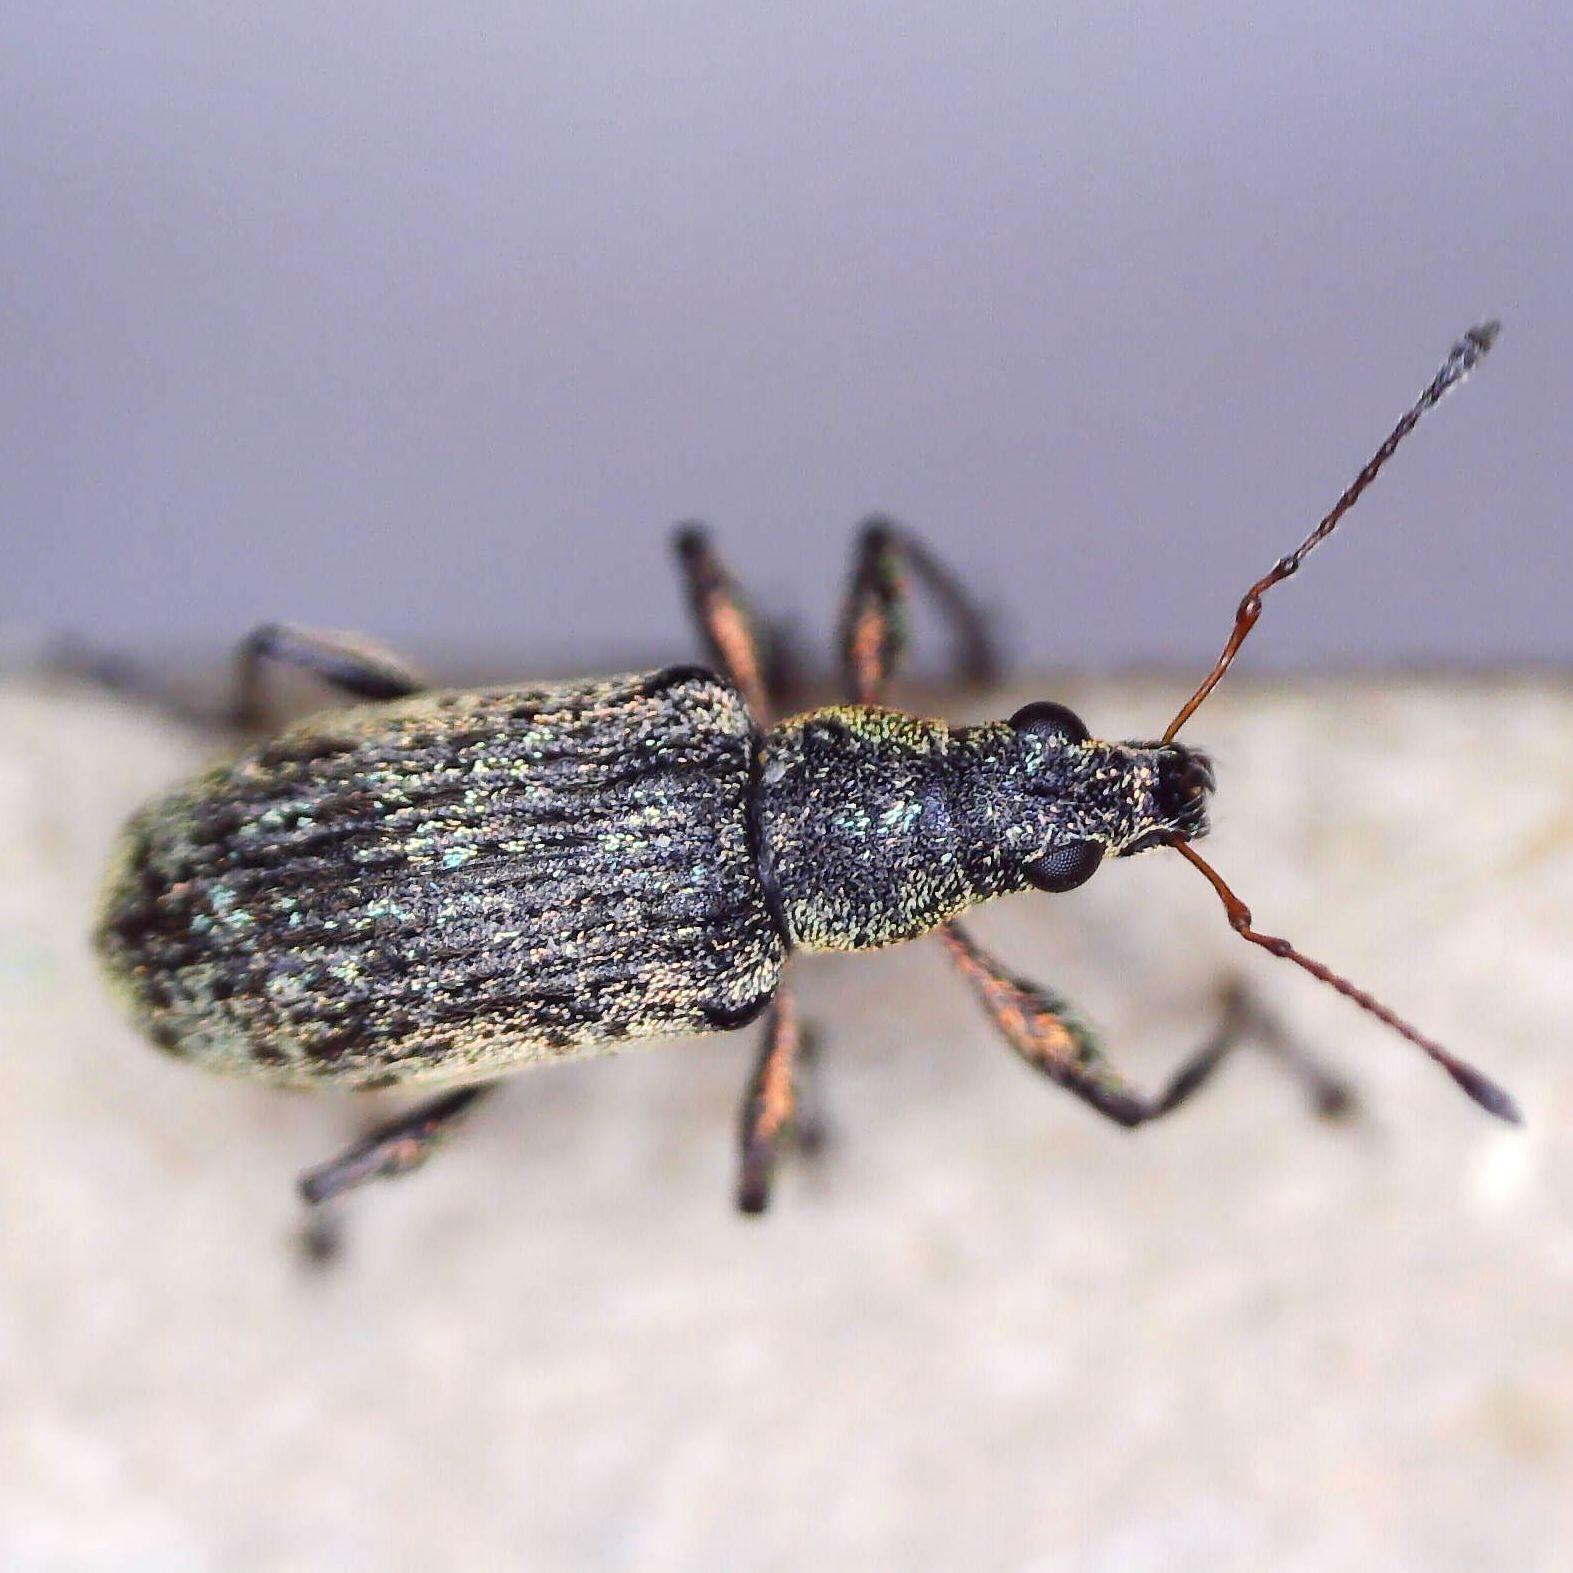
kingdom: Animalia
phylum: Arthropoda
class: Insecta
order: Coleoptera
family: Curculionidae
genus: Polydrusus
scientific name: Polydrusus cervinus
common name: Weevil
